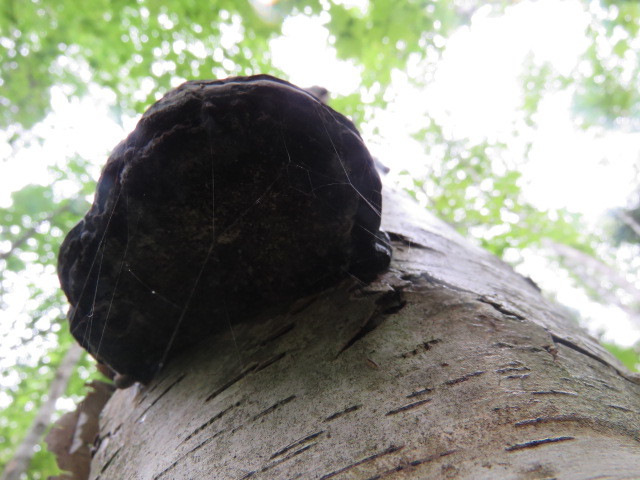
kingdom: Fungi
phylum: Basidiomycota
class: Agaricomycetes
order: Polyporales
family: Polyporaceae
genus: Fomes
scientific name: Fomes fomentarius
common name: Hoof fungus
